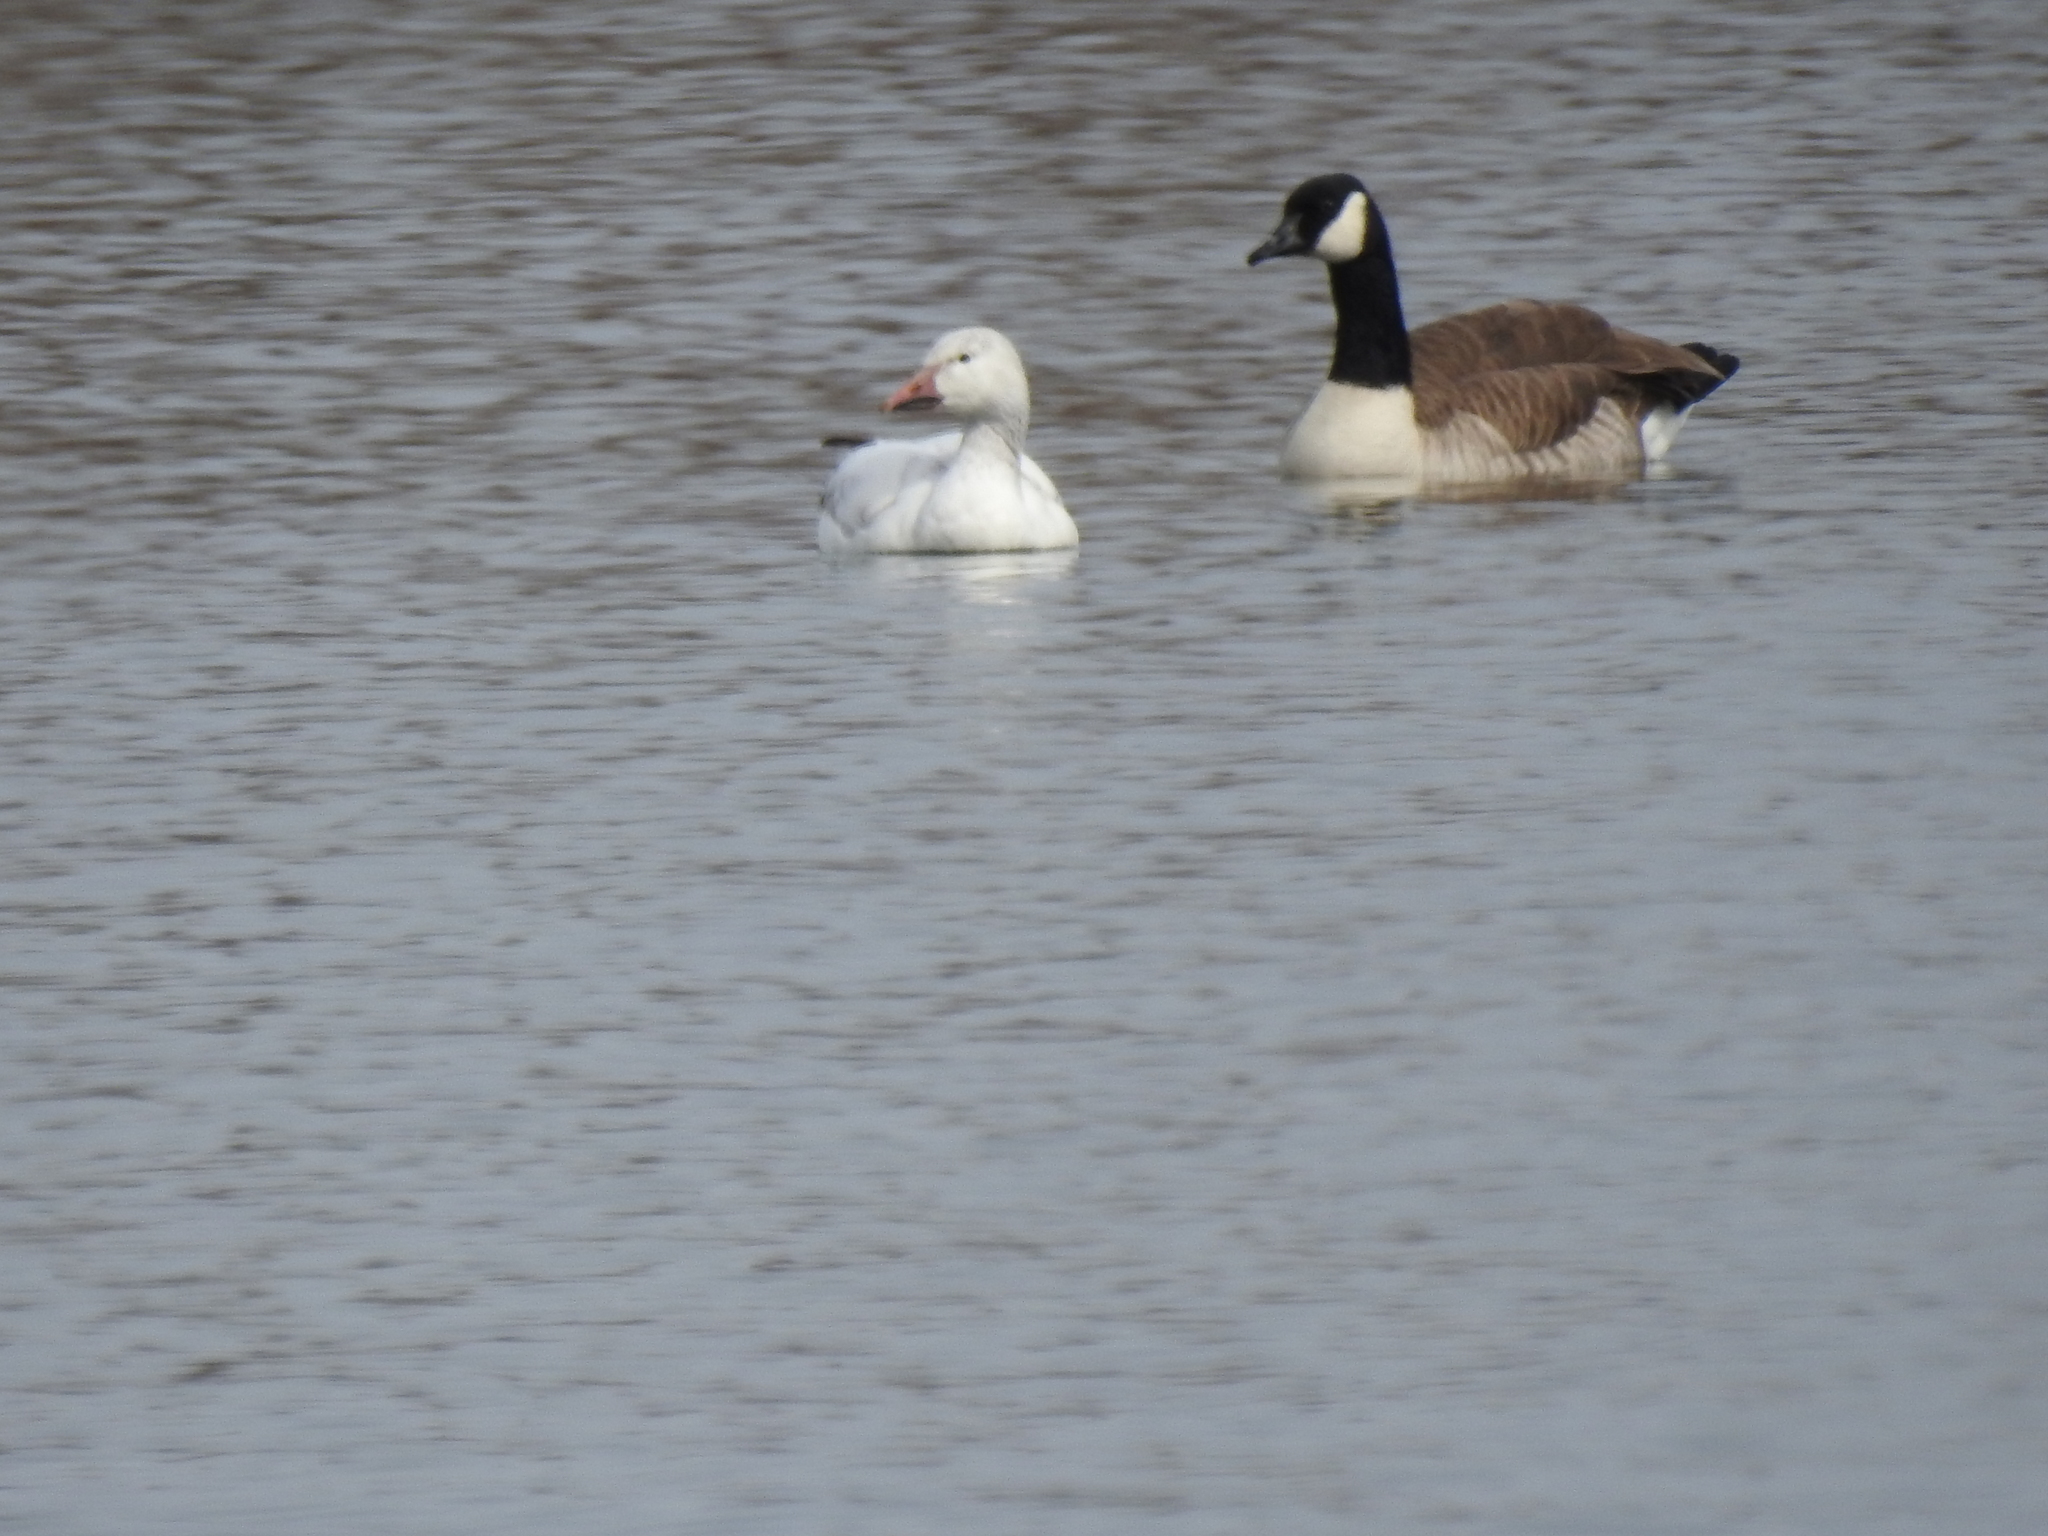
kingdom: Animalia
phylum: Chordata
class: Aves
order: Anseriformes
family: Anatidae
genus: Branta
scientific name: Branta canadensis
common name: Canada goose
